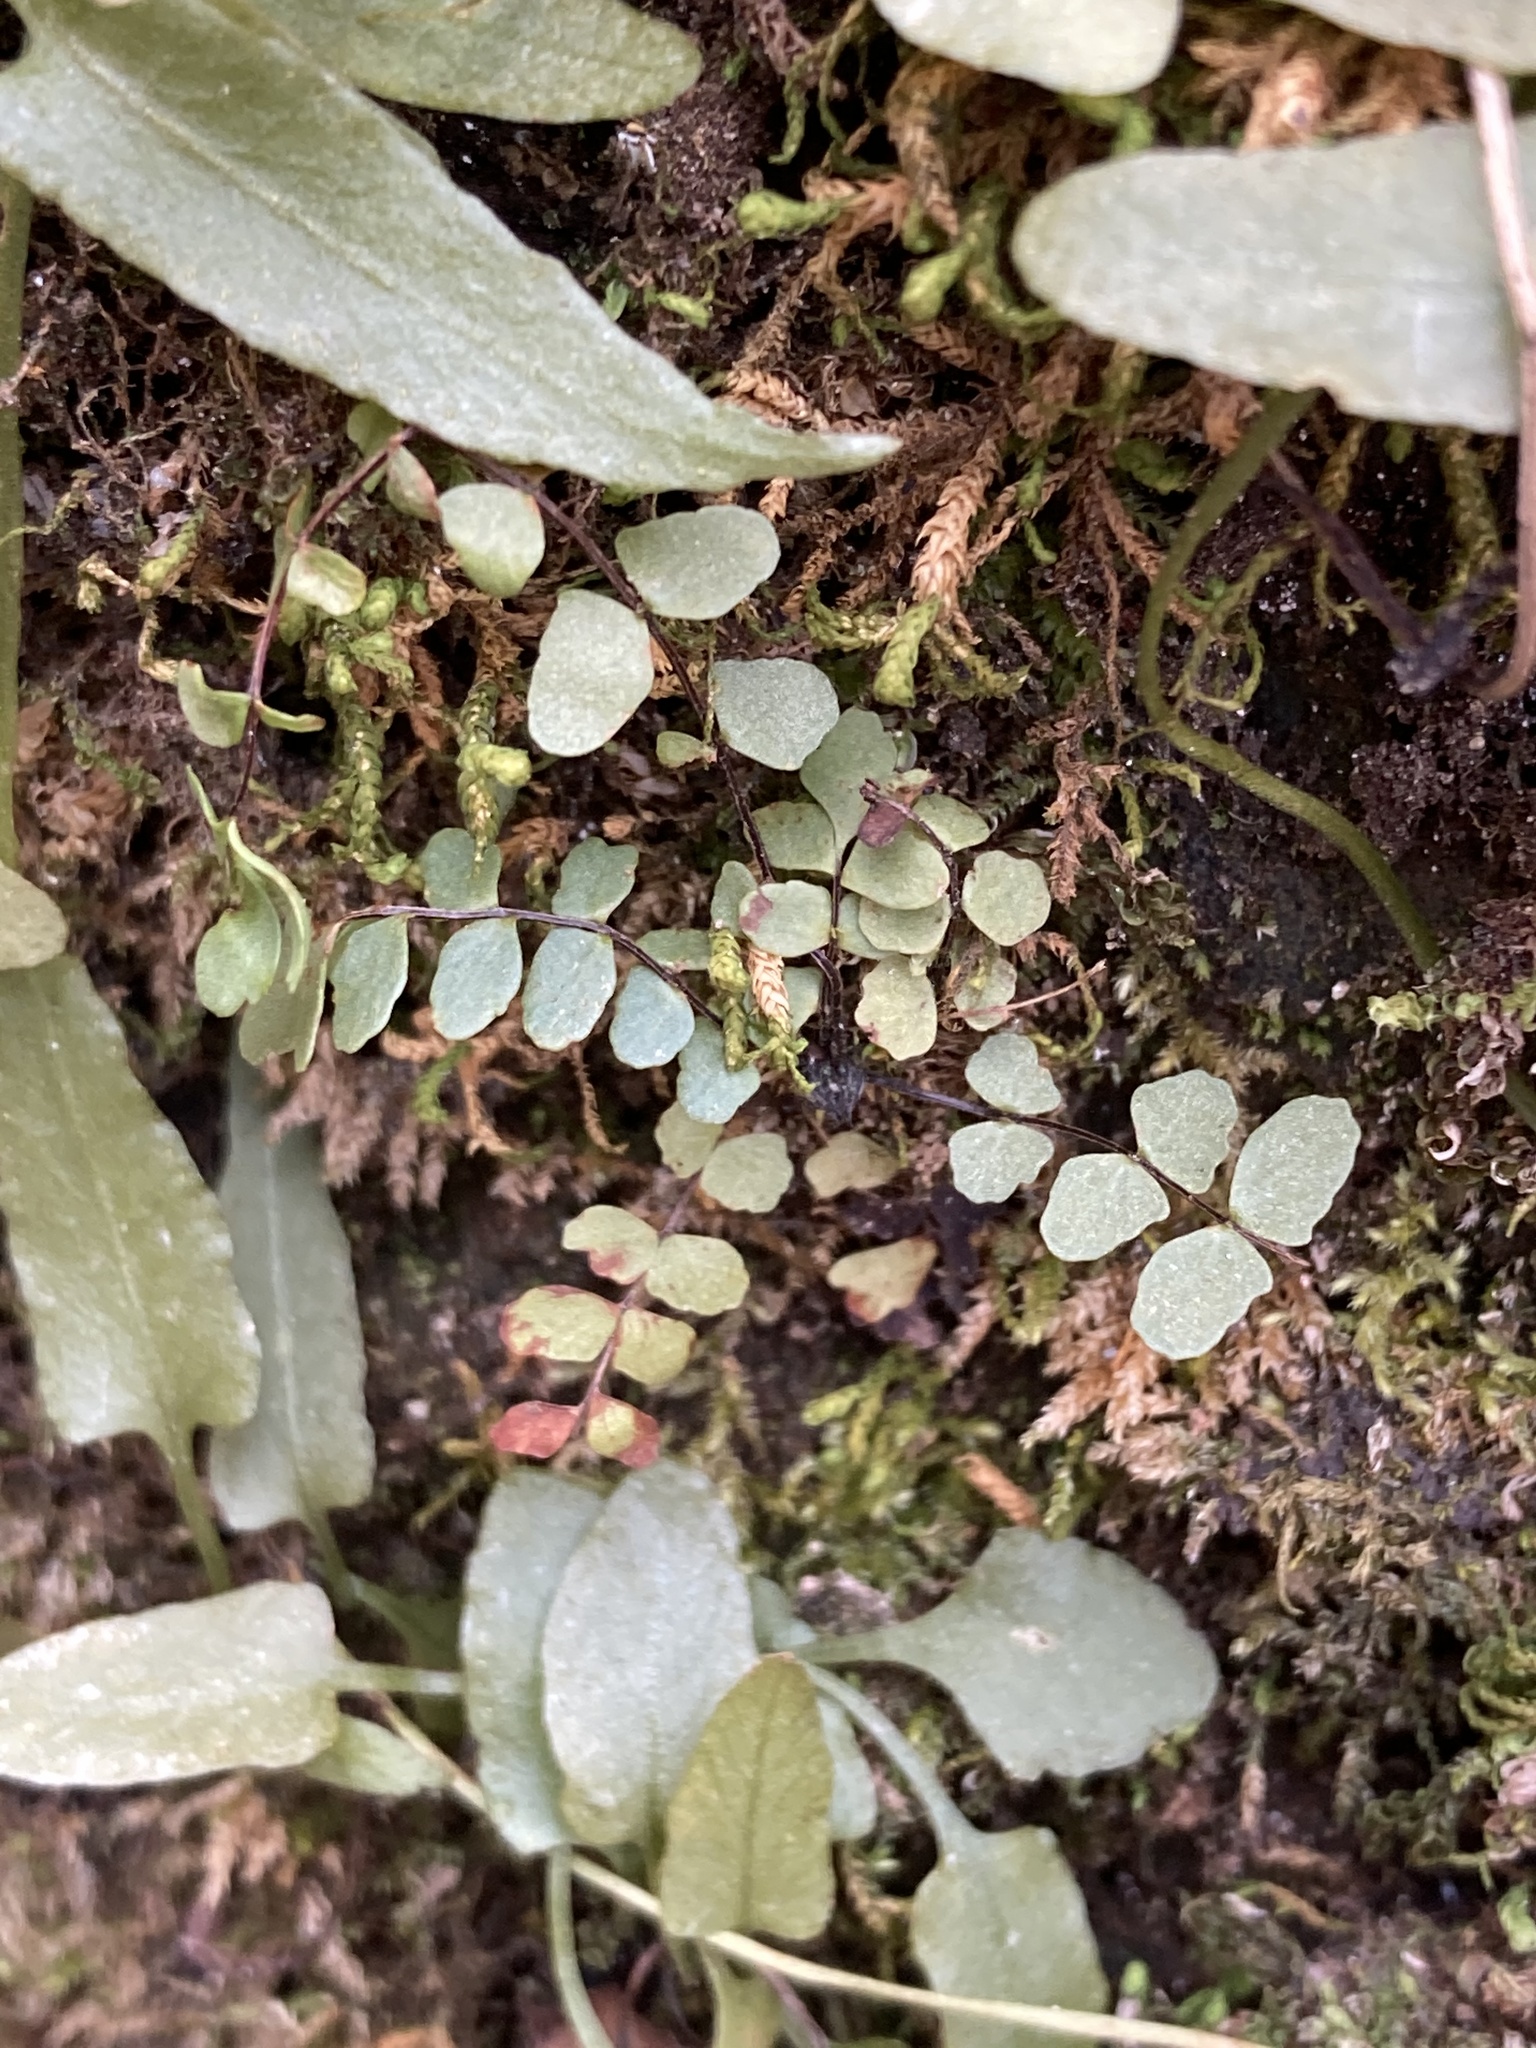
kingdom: Plantae
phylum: Tracheophyta
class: Polypodiopsida
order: Polypodiales
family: Aspleniaceae
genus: Asplenium
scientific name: Asplenium trichomanes
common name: Maidenhair spleenwort
